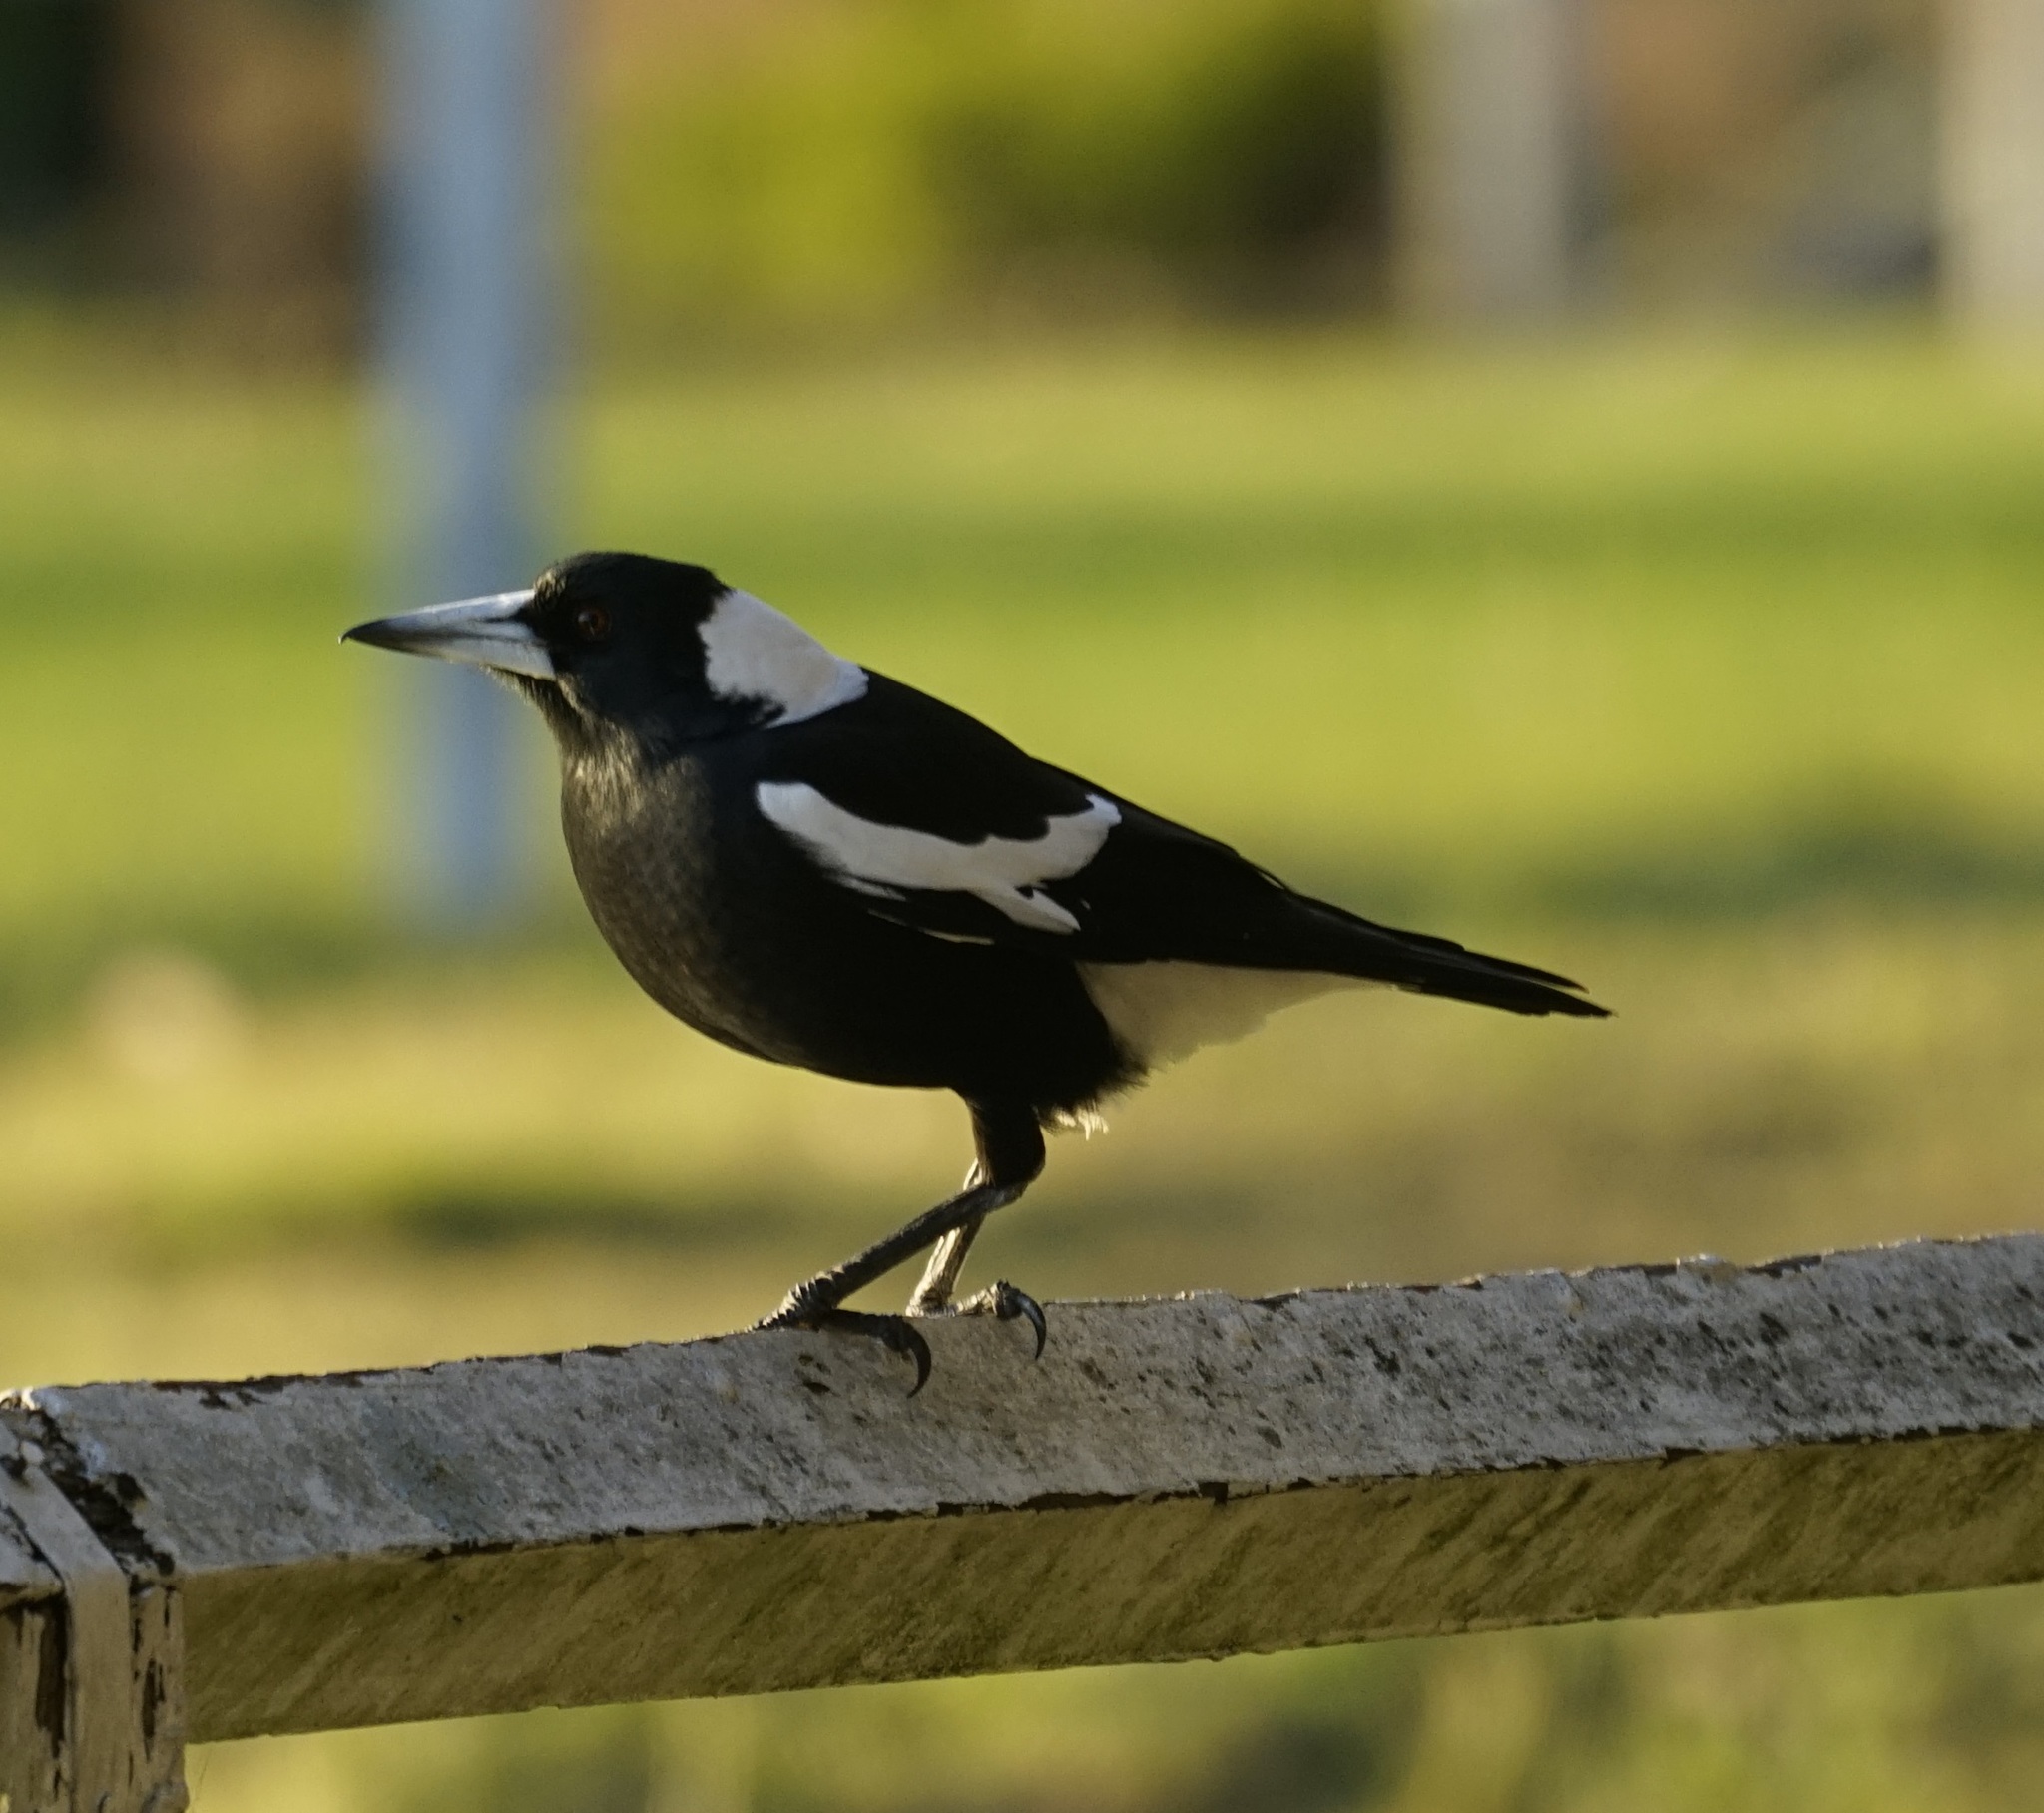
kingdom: Animalia
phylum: Chordata
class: Aves
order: Passeriformes
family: Cracticidae
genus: Gymnorhina
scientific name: Gymnorhina tibicen
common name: Australian magpie
